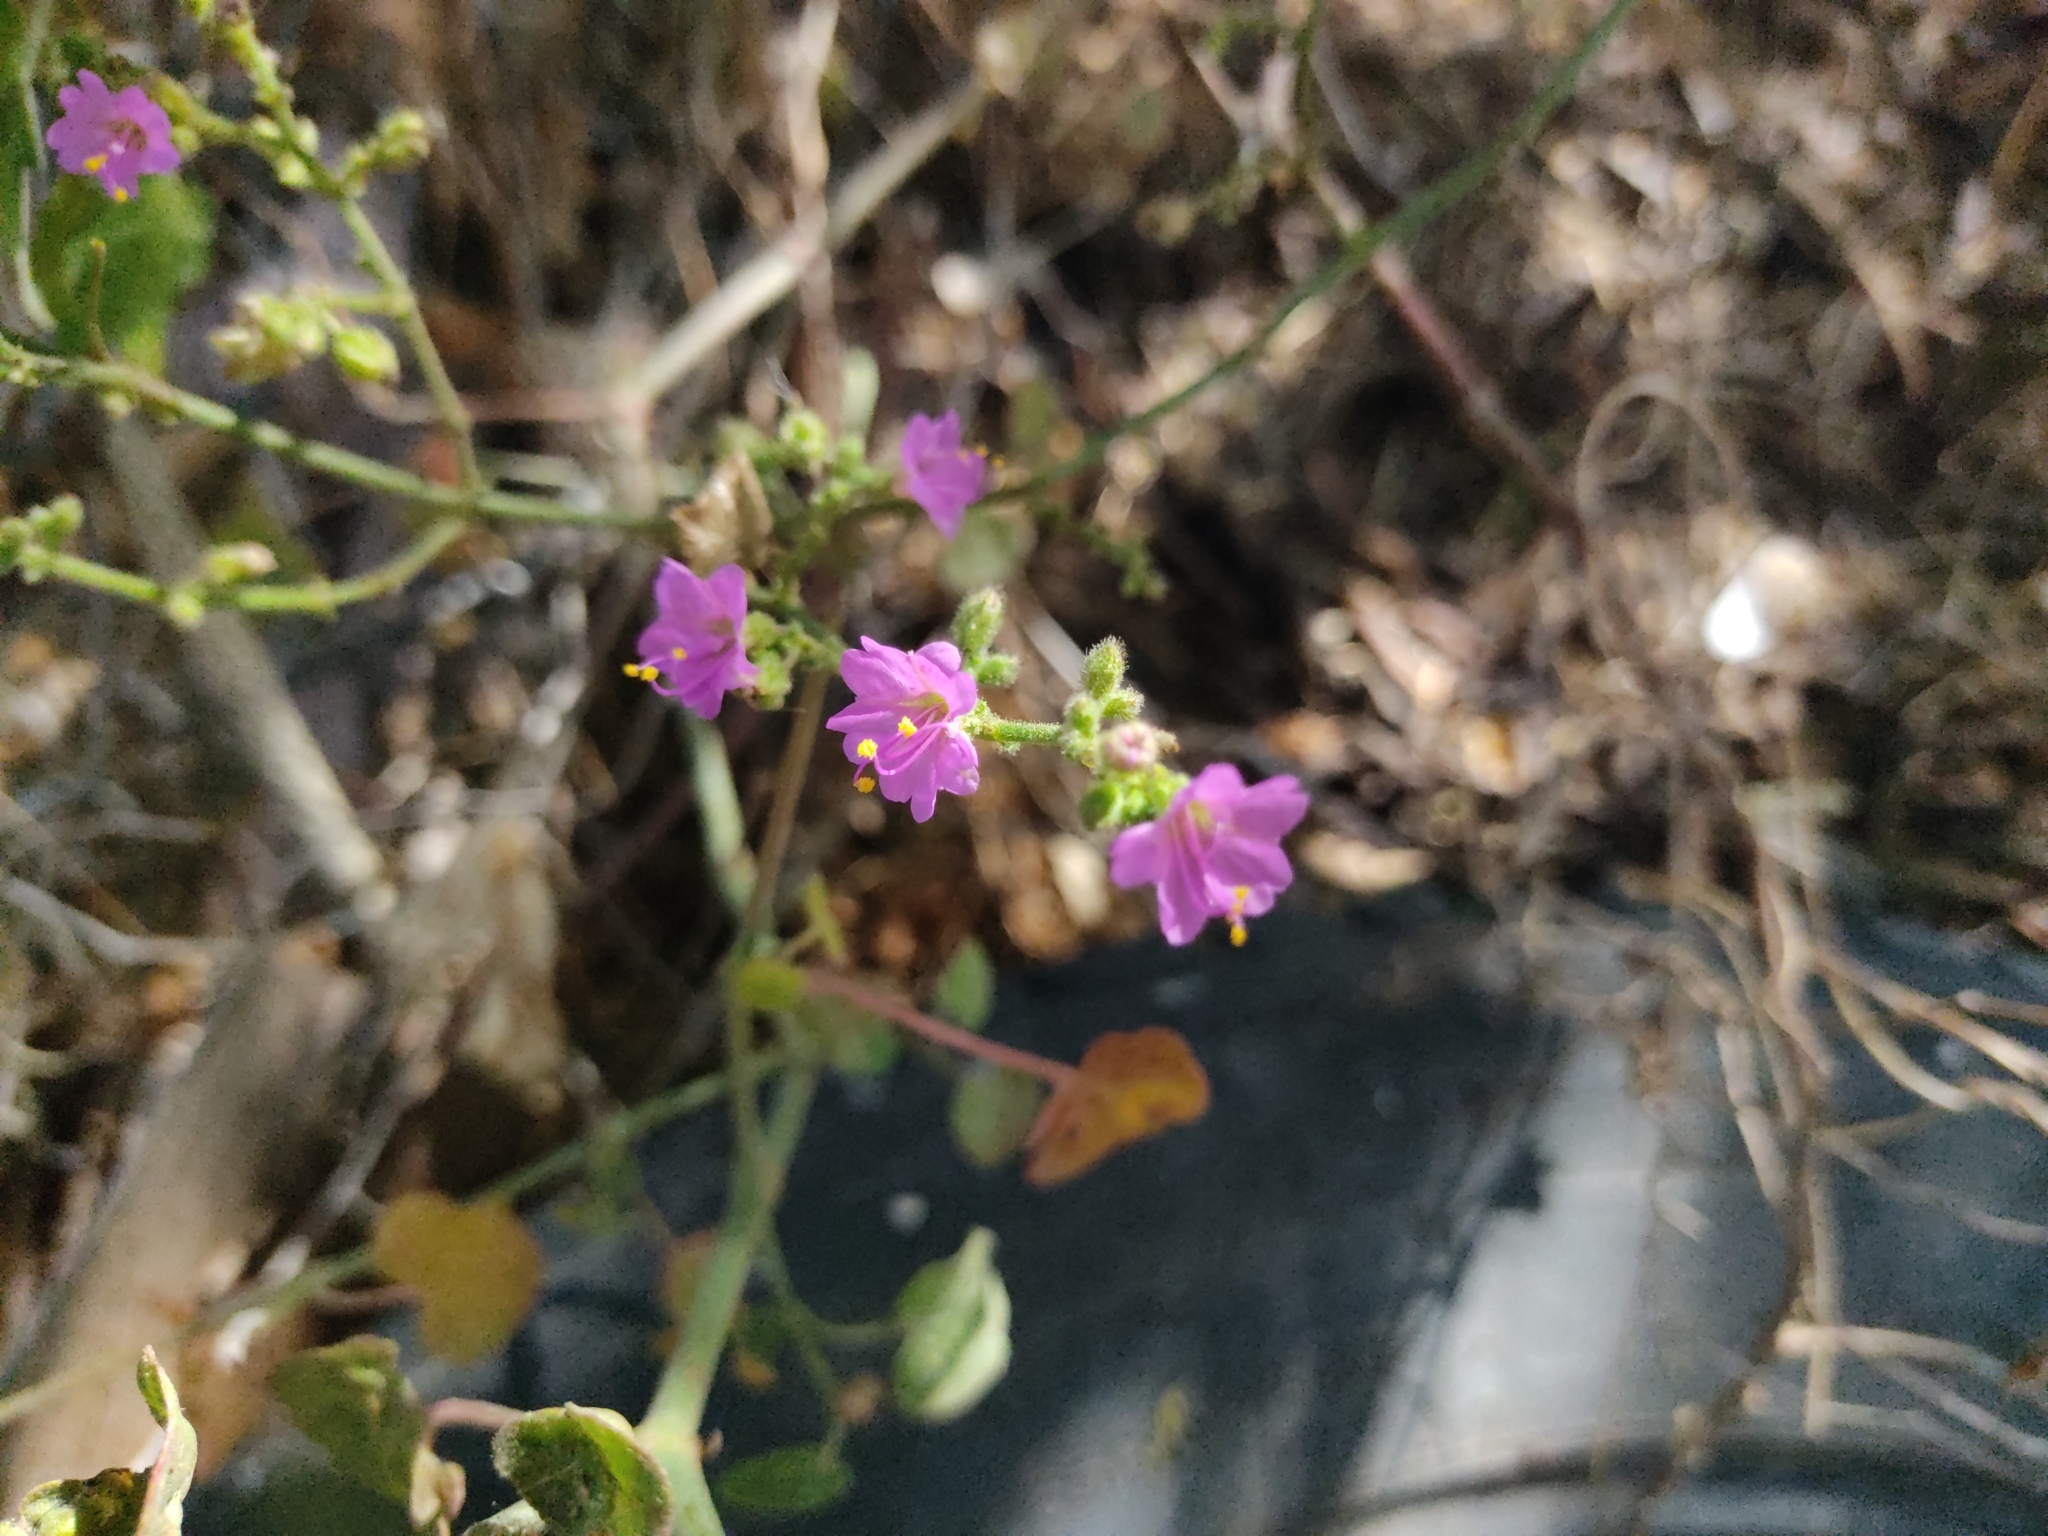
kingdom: Plantae
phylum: Tracheophyta
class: Magnoliopsida
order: Caryophyllales
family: Nyctaginaceae
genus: Mirabilis
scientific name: Mirabilis viscosa
